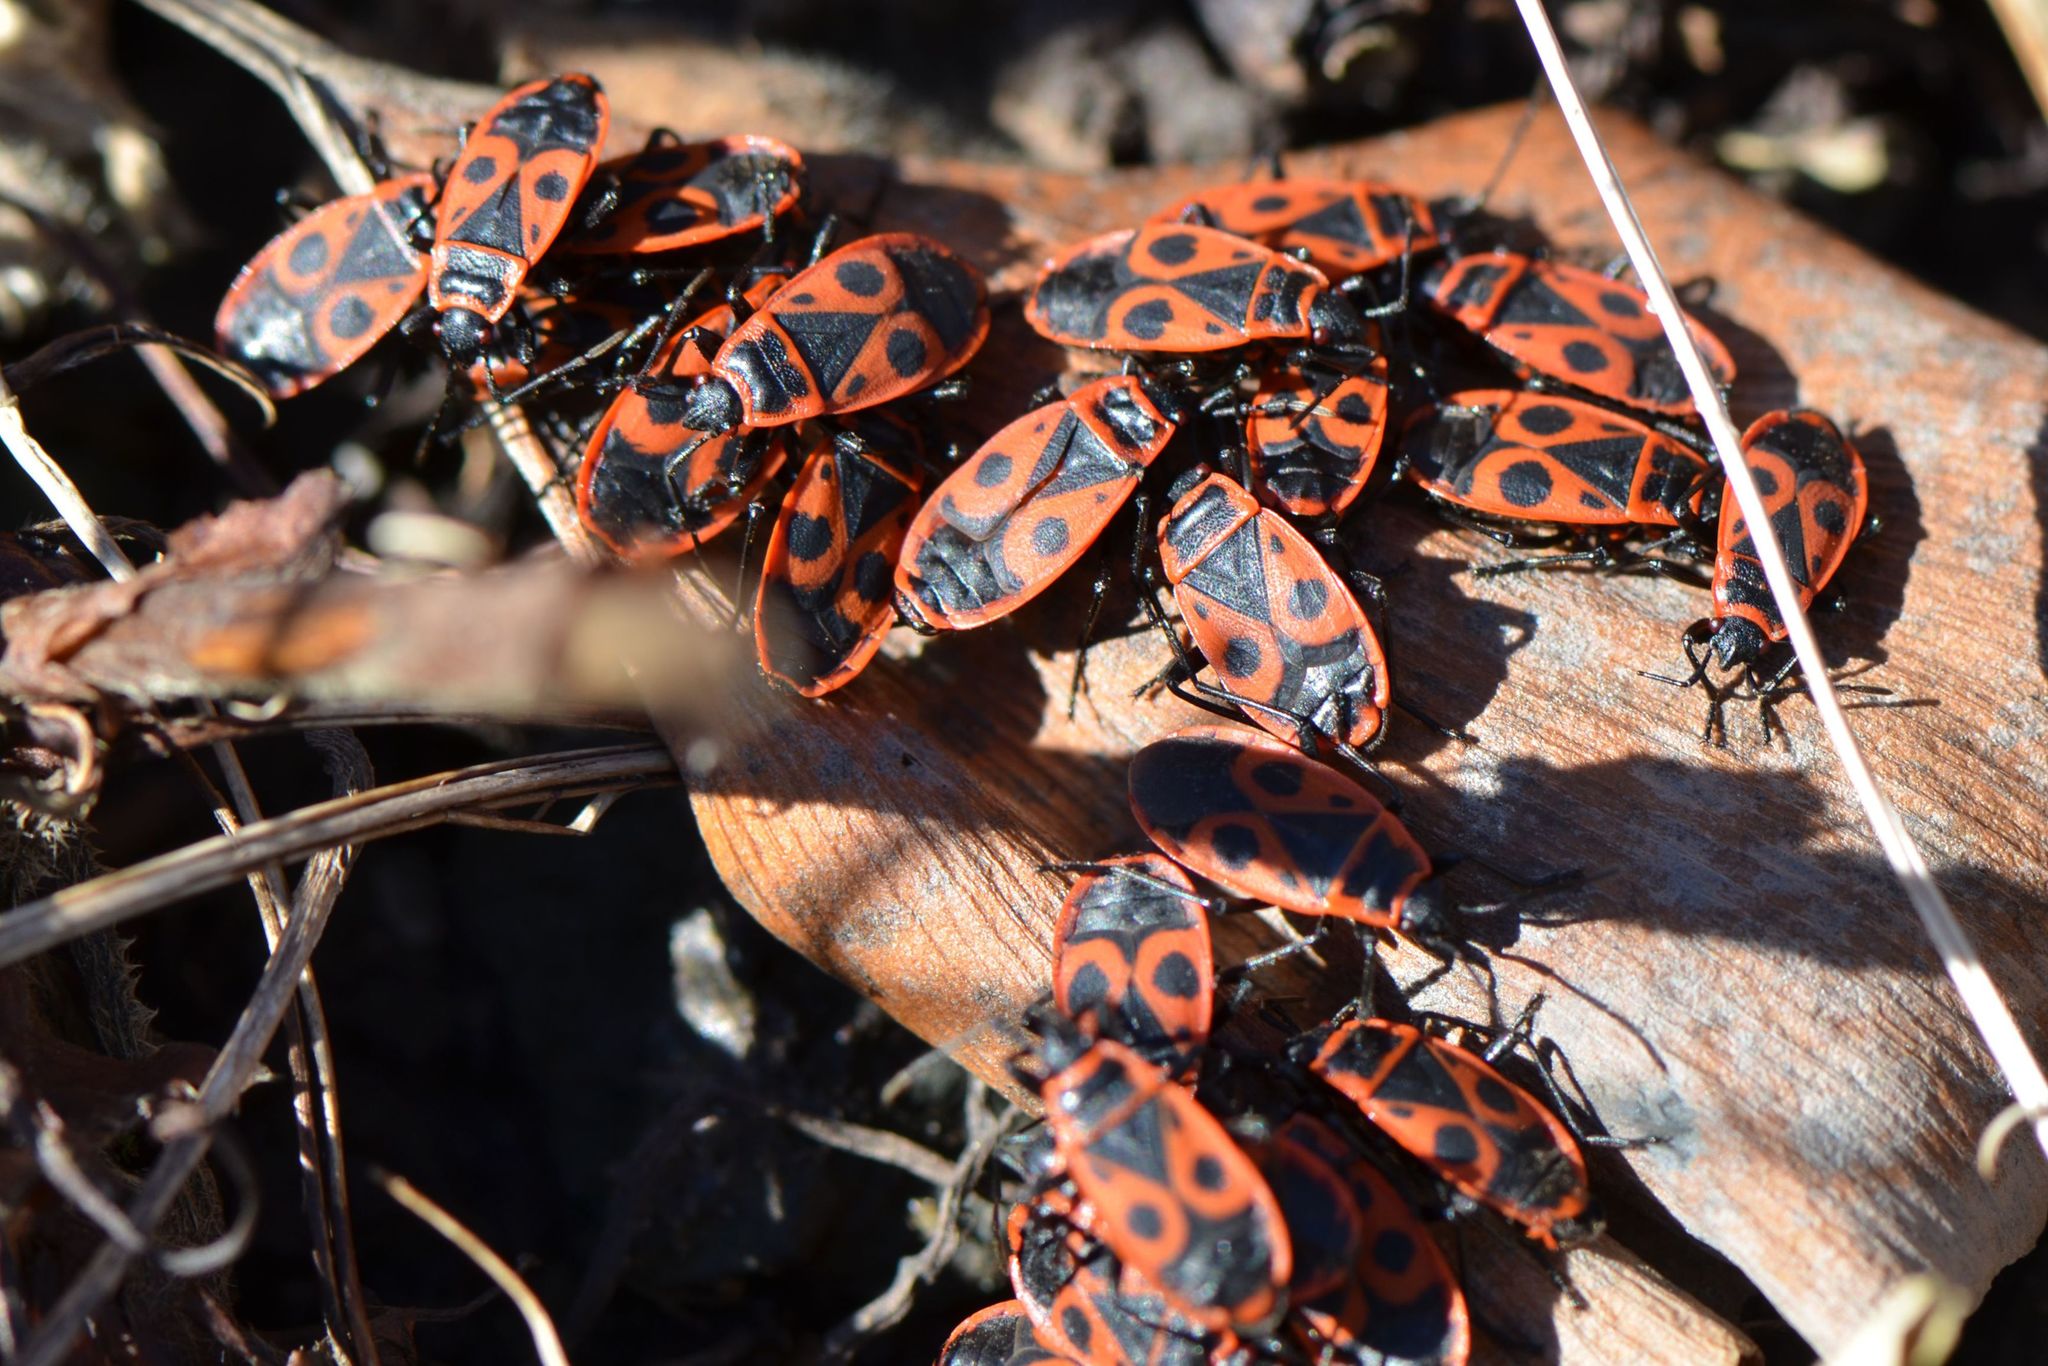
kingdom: Animalia
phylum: Arthropoda
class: Insecta
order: Hemiptera
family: Pyrrhocoridae
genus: Pyrrhocoris
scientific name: Pyrrhocoris apterus
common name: Firebug
